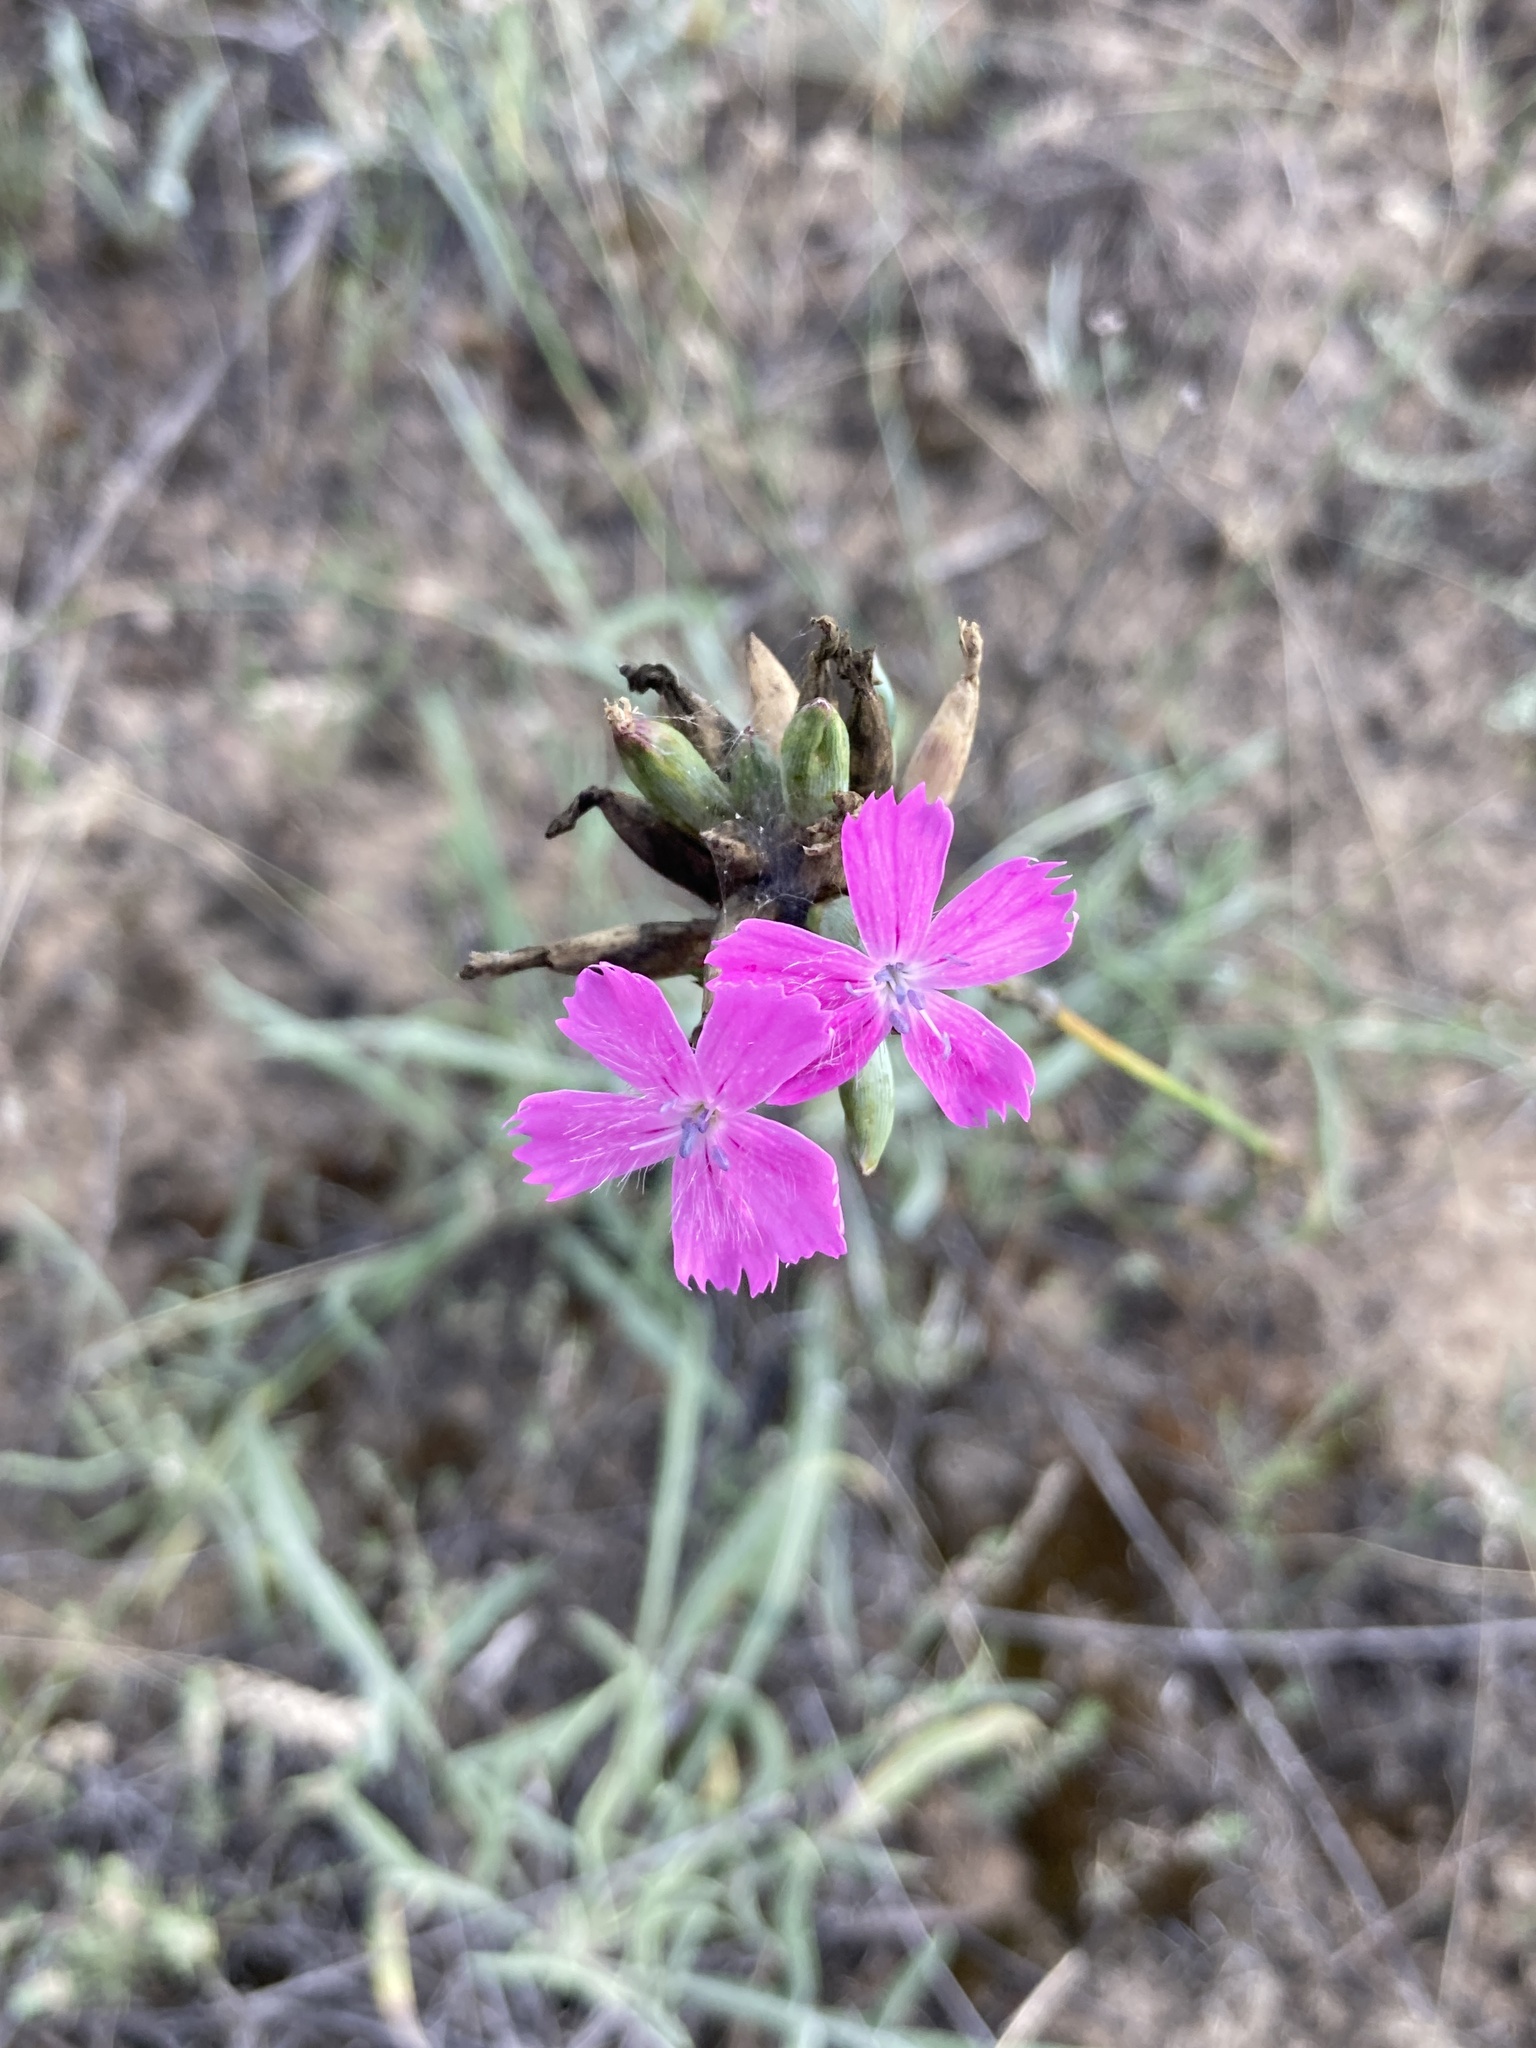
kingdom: Plantae
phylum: Tracheophyta
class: Magnoliopsida
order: Caryophyllales
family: Caryophyllaceae
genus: Dianthus
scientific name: Dianthus polymorphus
